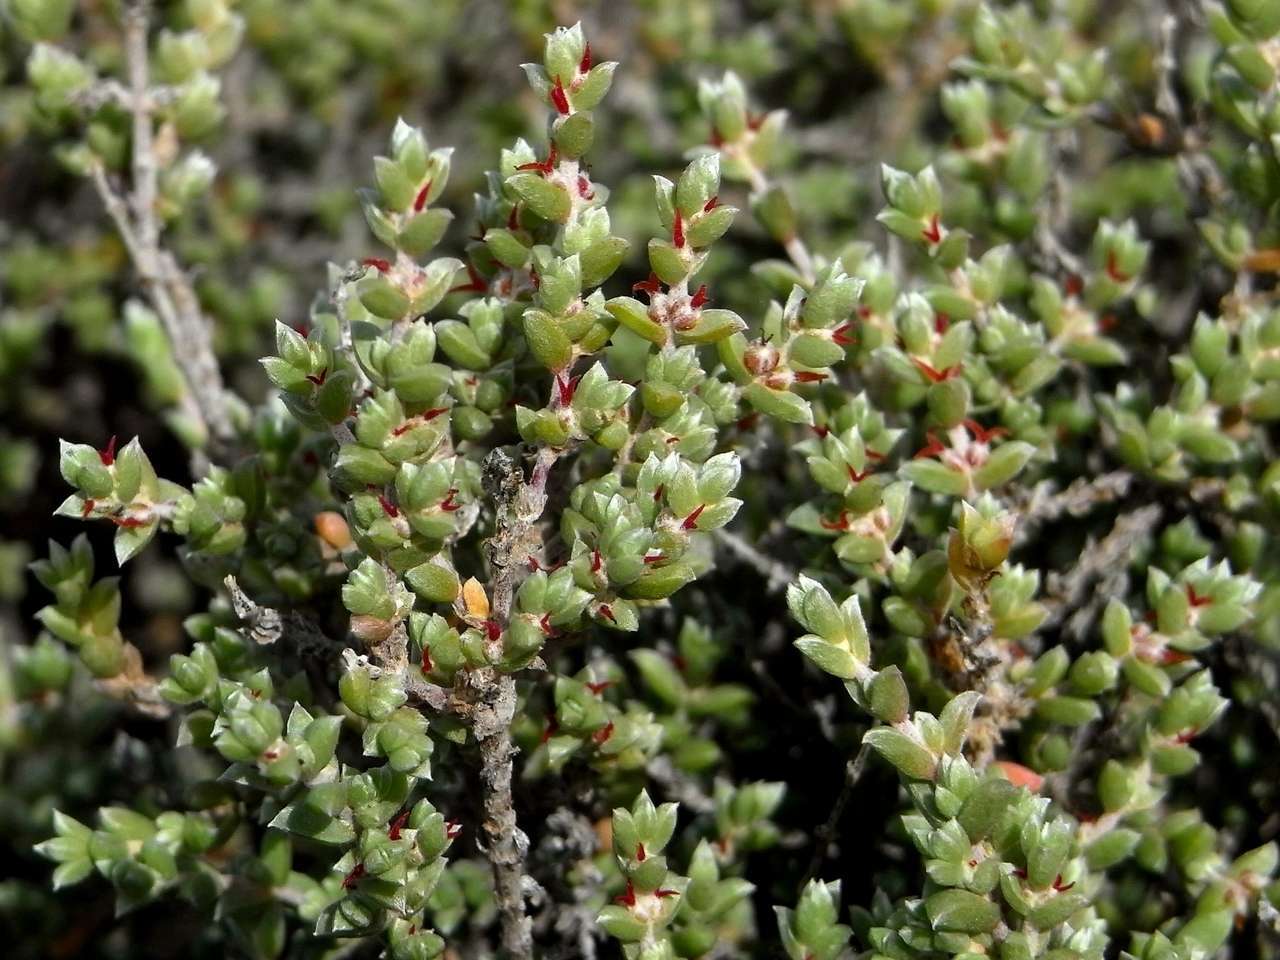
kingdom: Plantae
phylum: Tracheophyta
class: Magnoliopsida
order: Caryophyllales
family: Amaranthaceae
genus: Maireana
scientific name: Maireana oppositifolia
